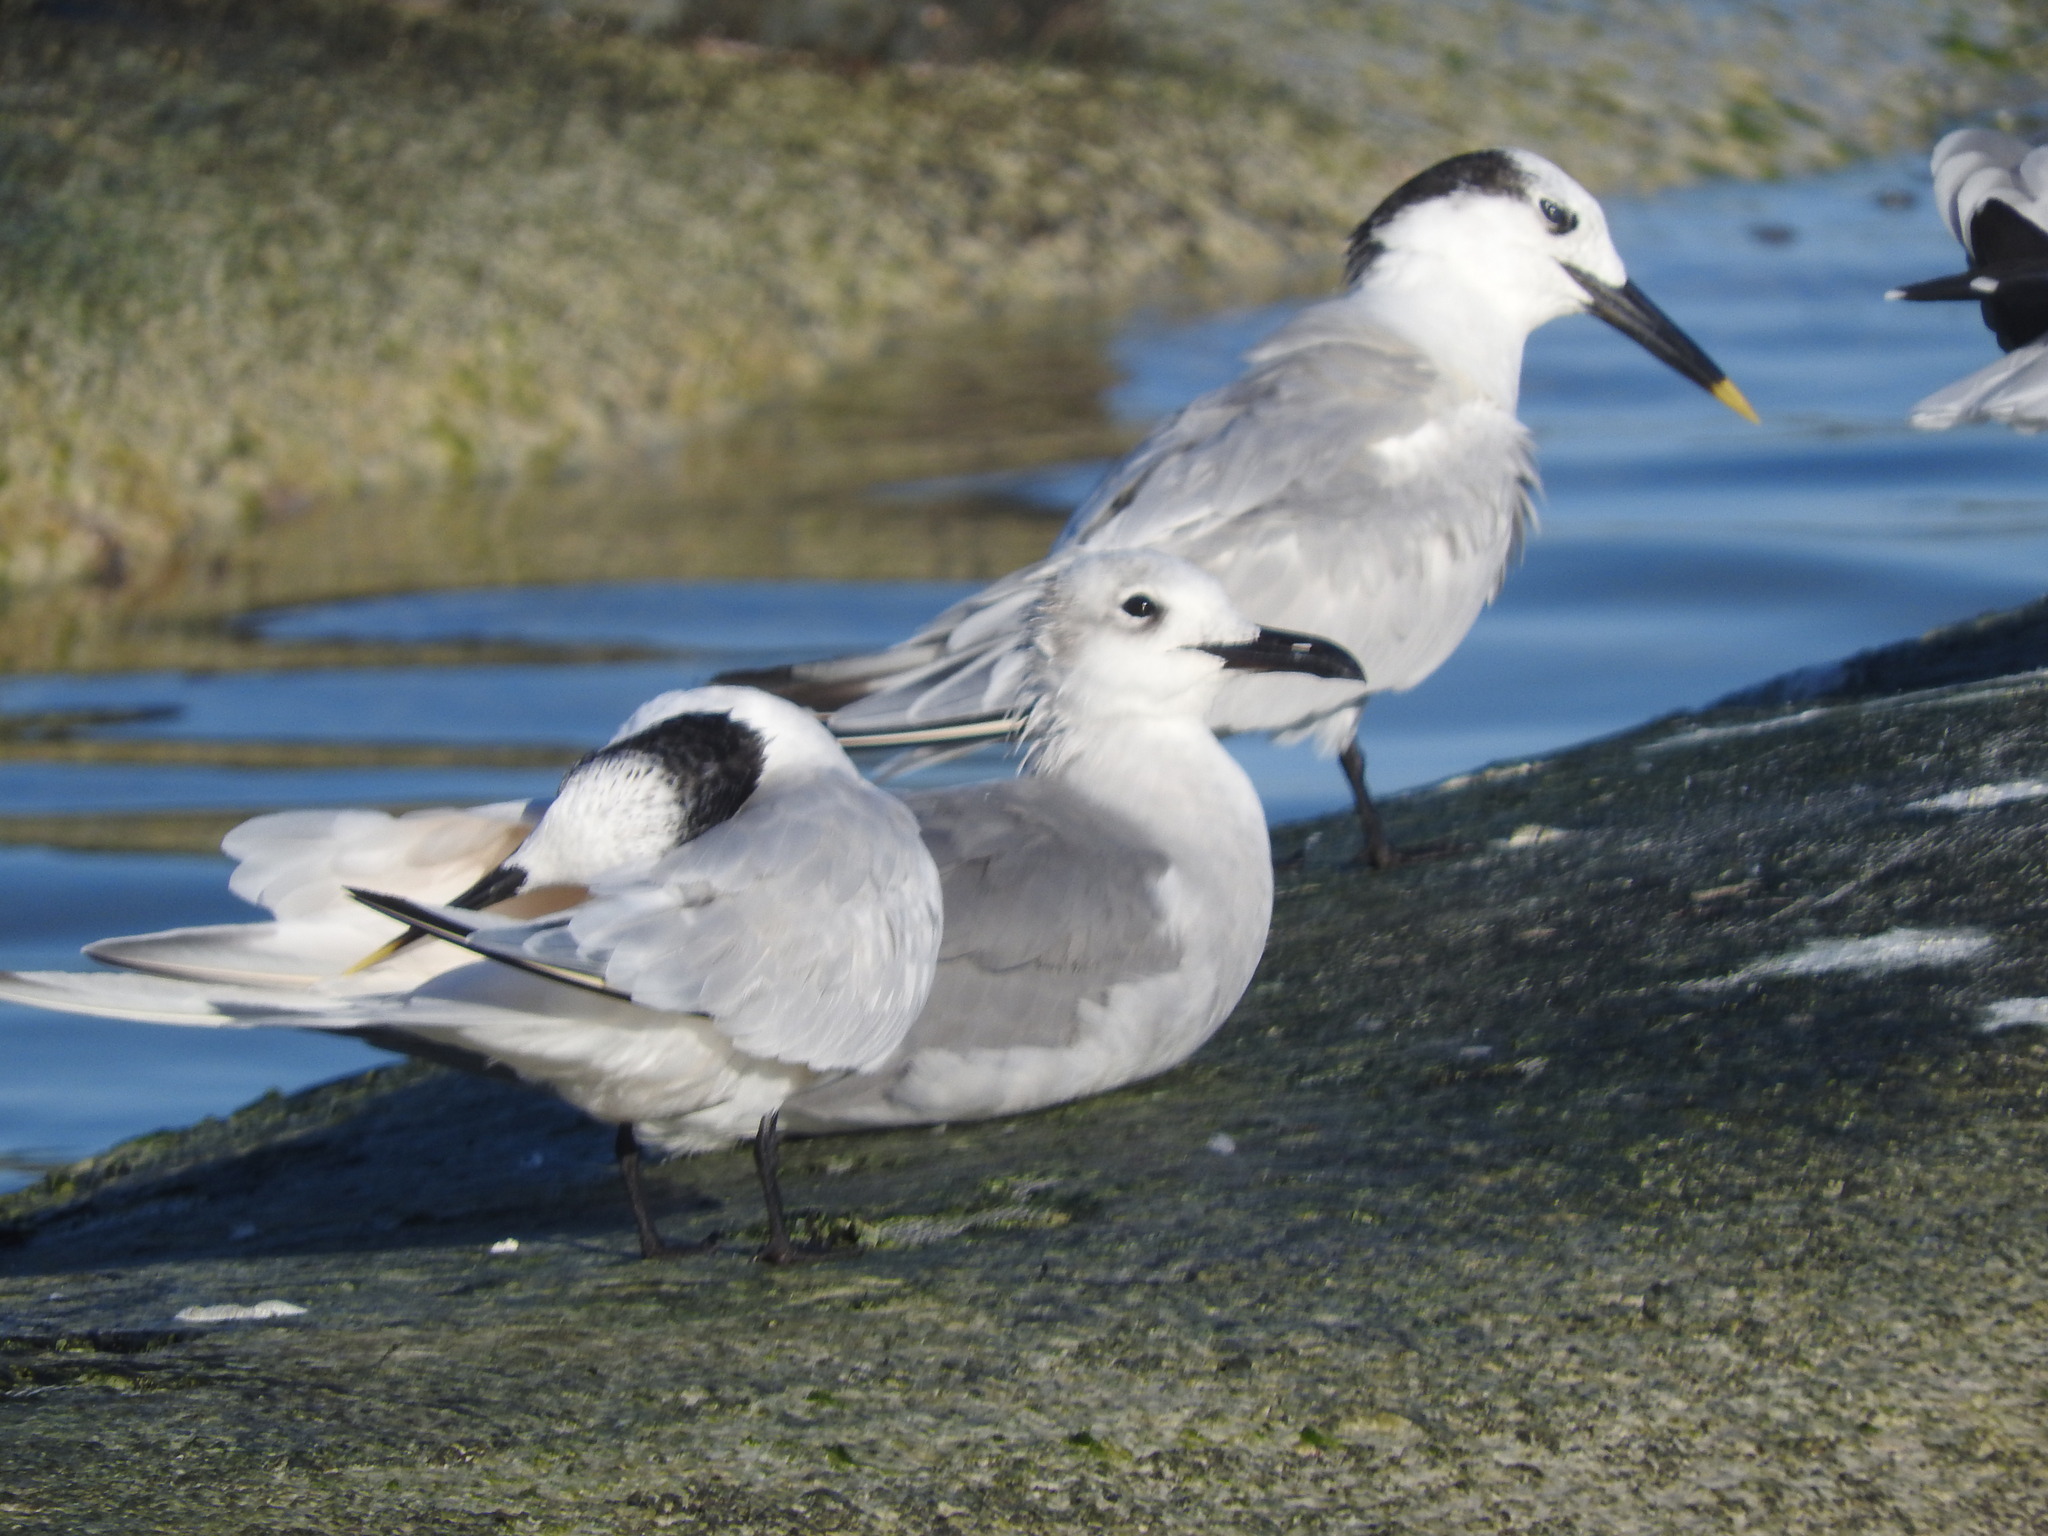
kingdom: Animalia
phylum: Chordata
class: Aves
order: Charadriiformes
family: Laridae
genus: Thalasseus
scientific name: Thalasseus sandvicensis
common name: Sandwich tern
